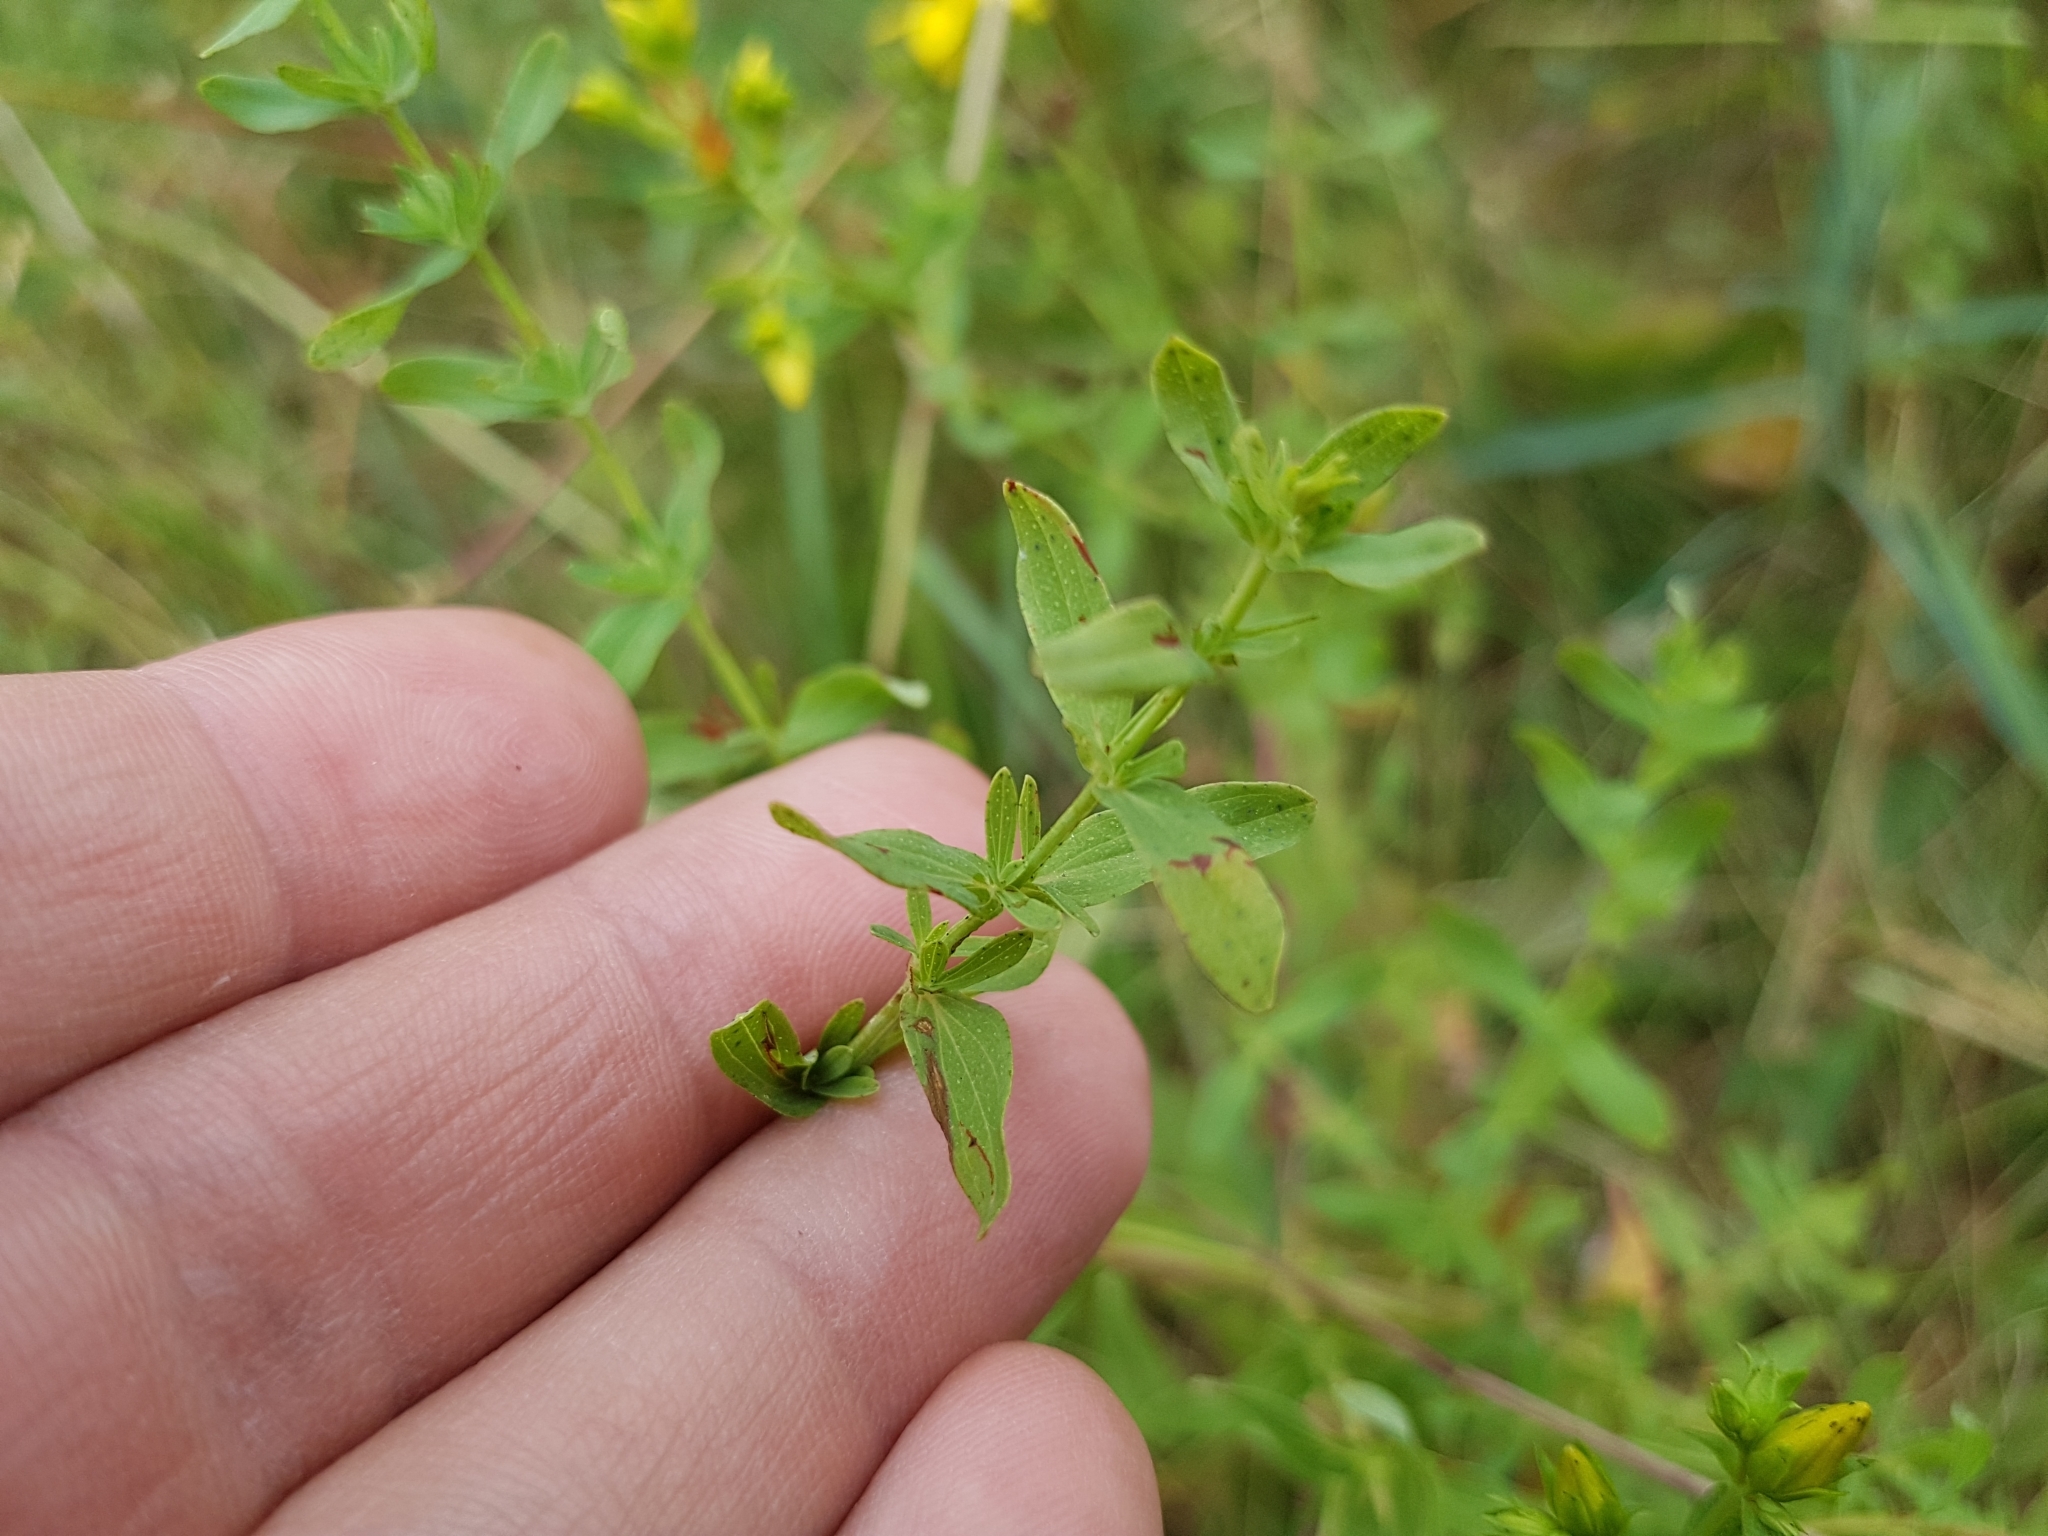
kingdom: Plantae
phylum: Tracheophyta
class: Magnoliopsida
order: Malpighiales
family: Hypericaceae
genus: Hypericum
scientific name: Hypericum perforatum
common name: Common st. johnswort
